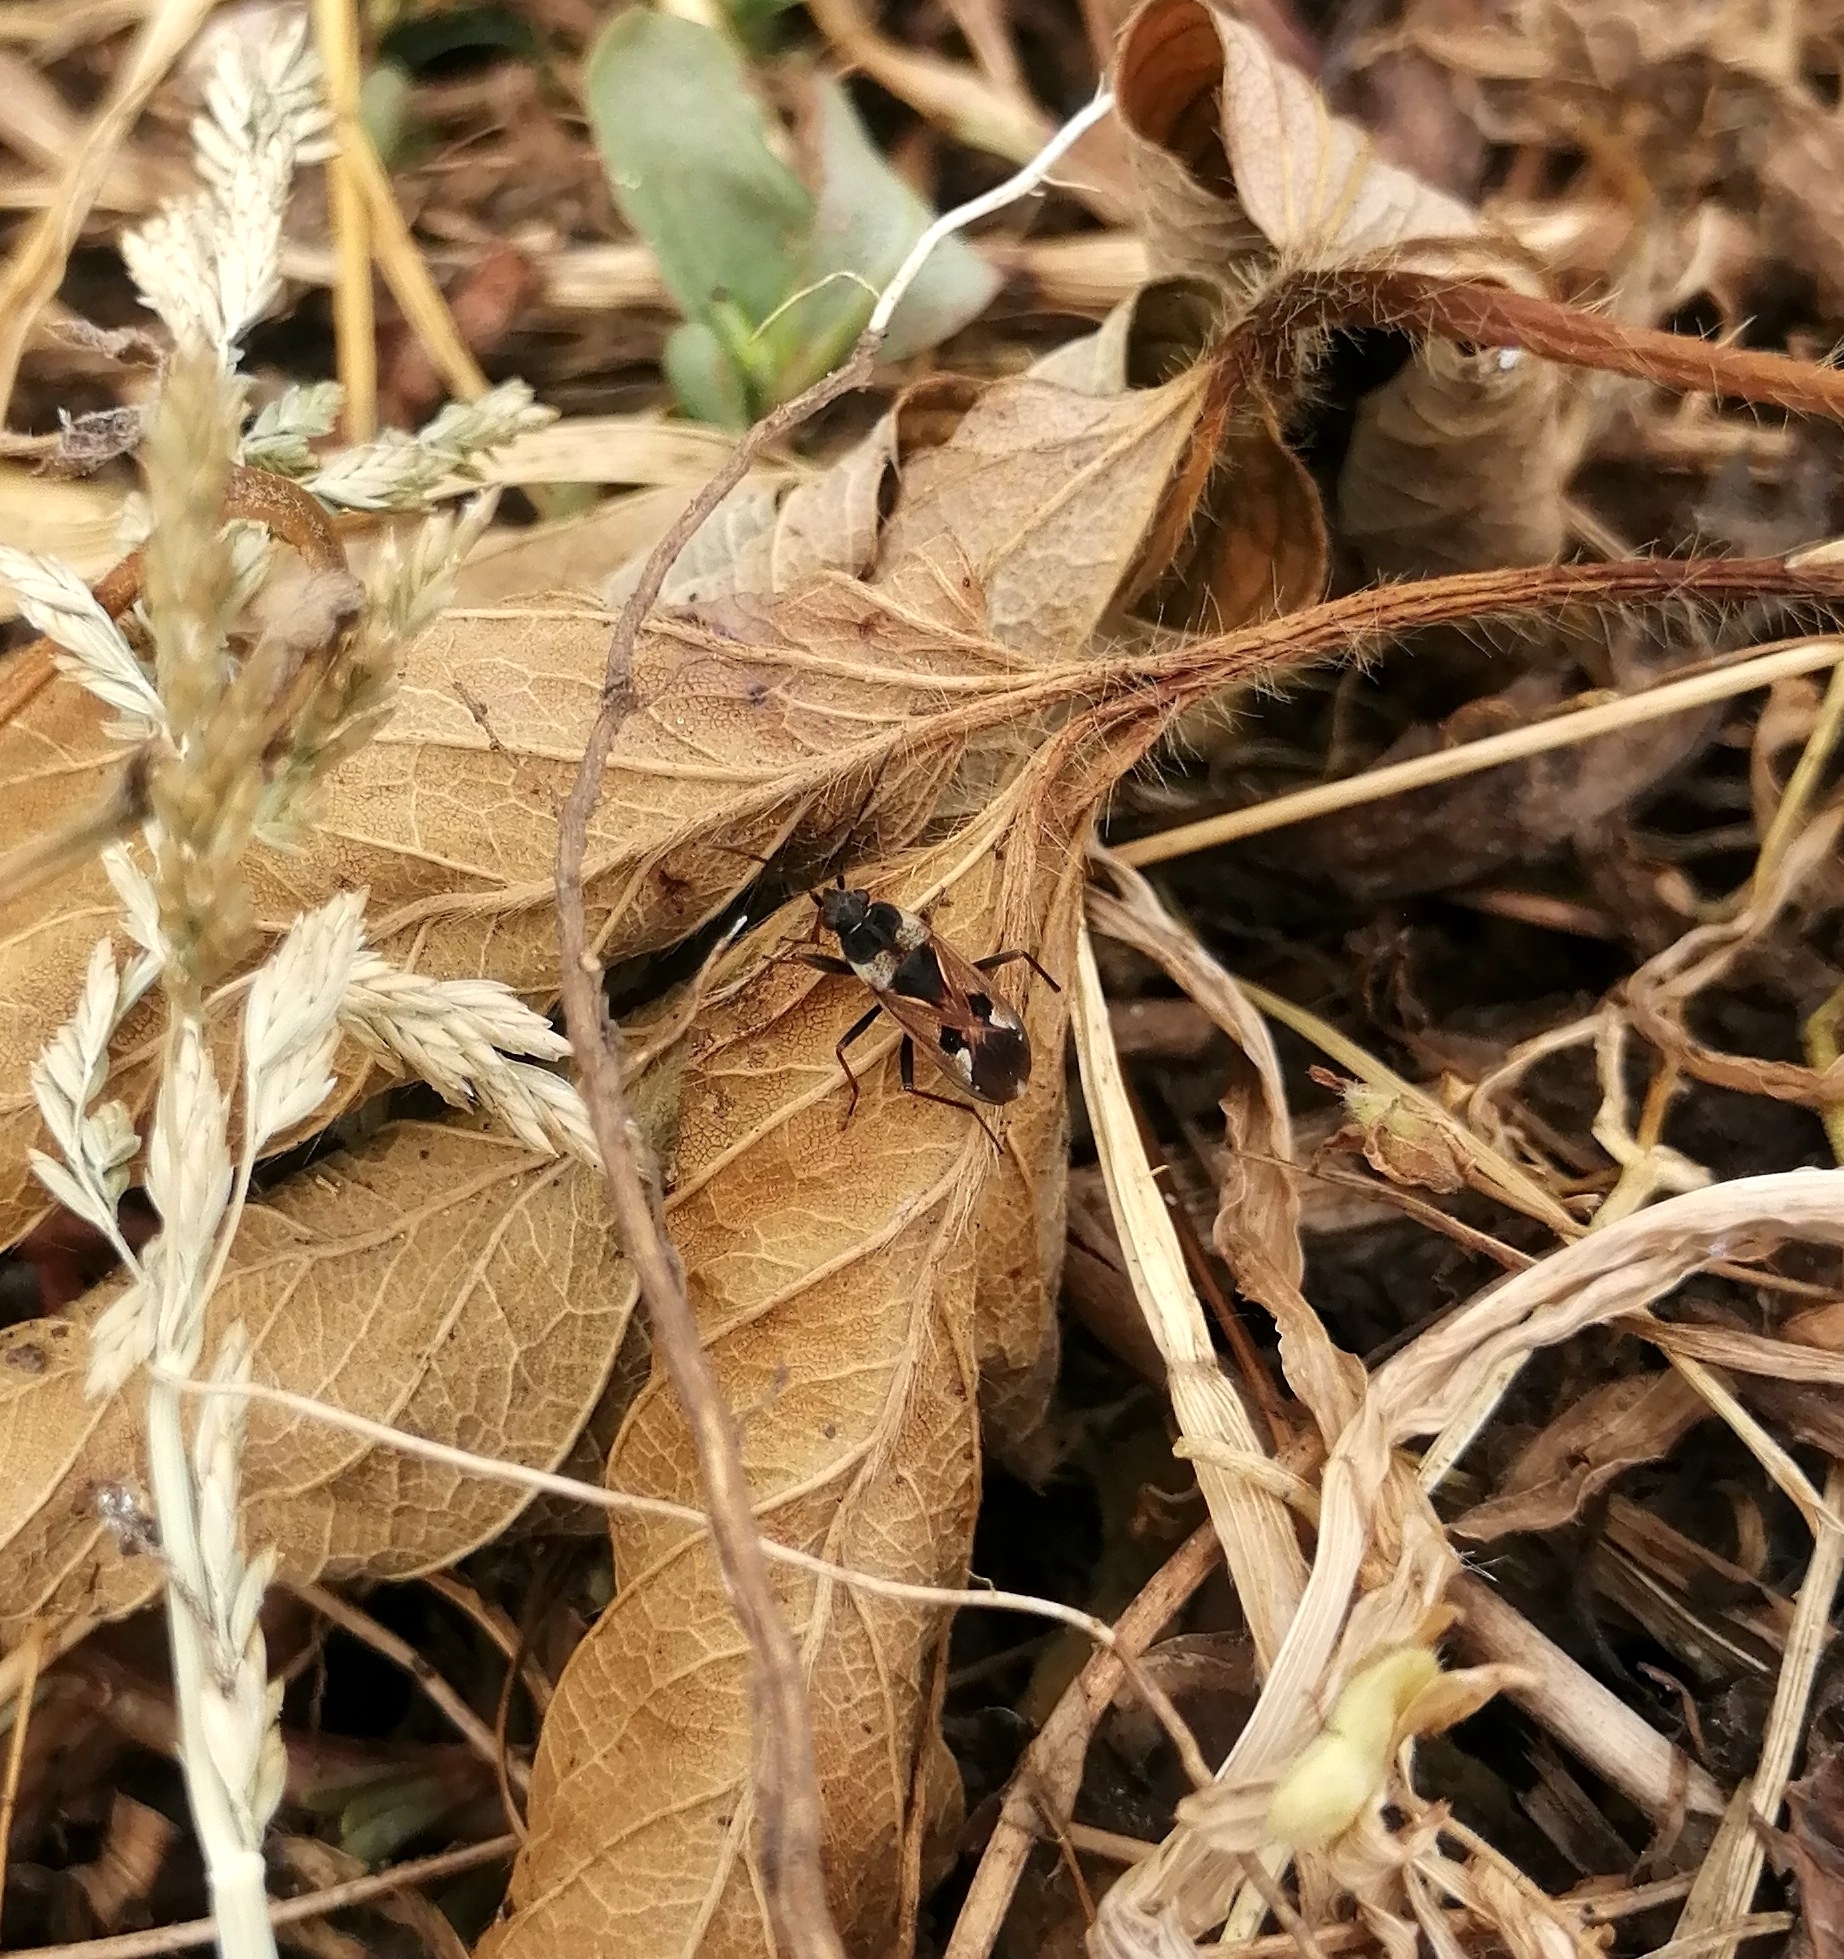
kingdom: Animalia
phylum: Arthropoda
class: Insecta
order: Hemiptera
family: Rhyparochromidae
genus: Rhyparochromus
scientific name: Rhyparochromus vulgaris
